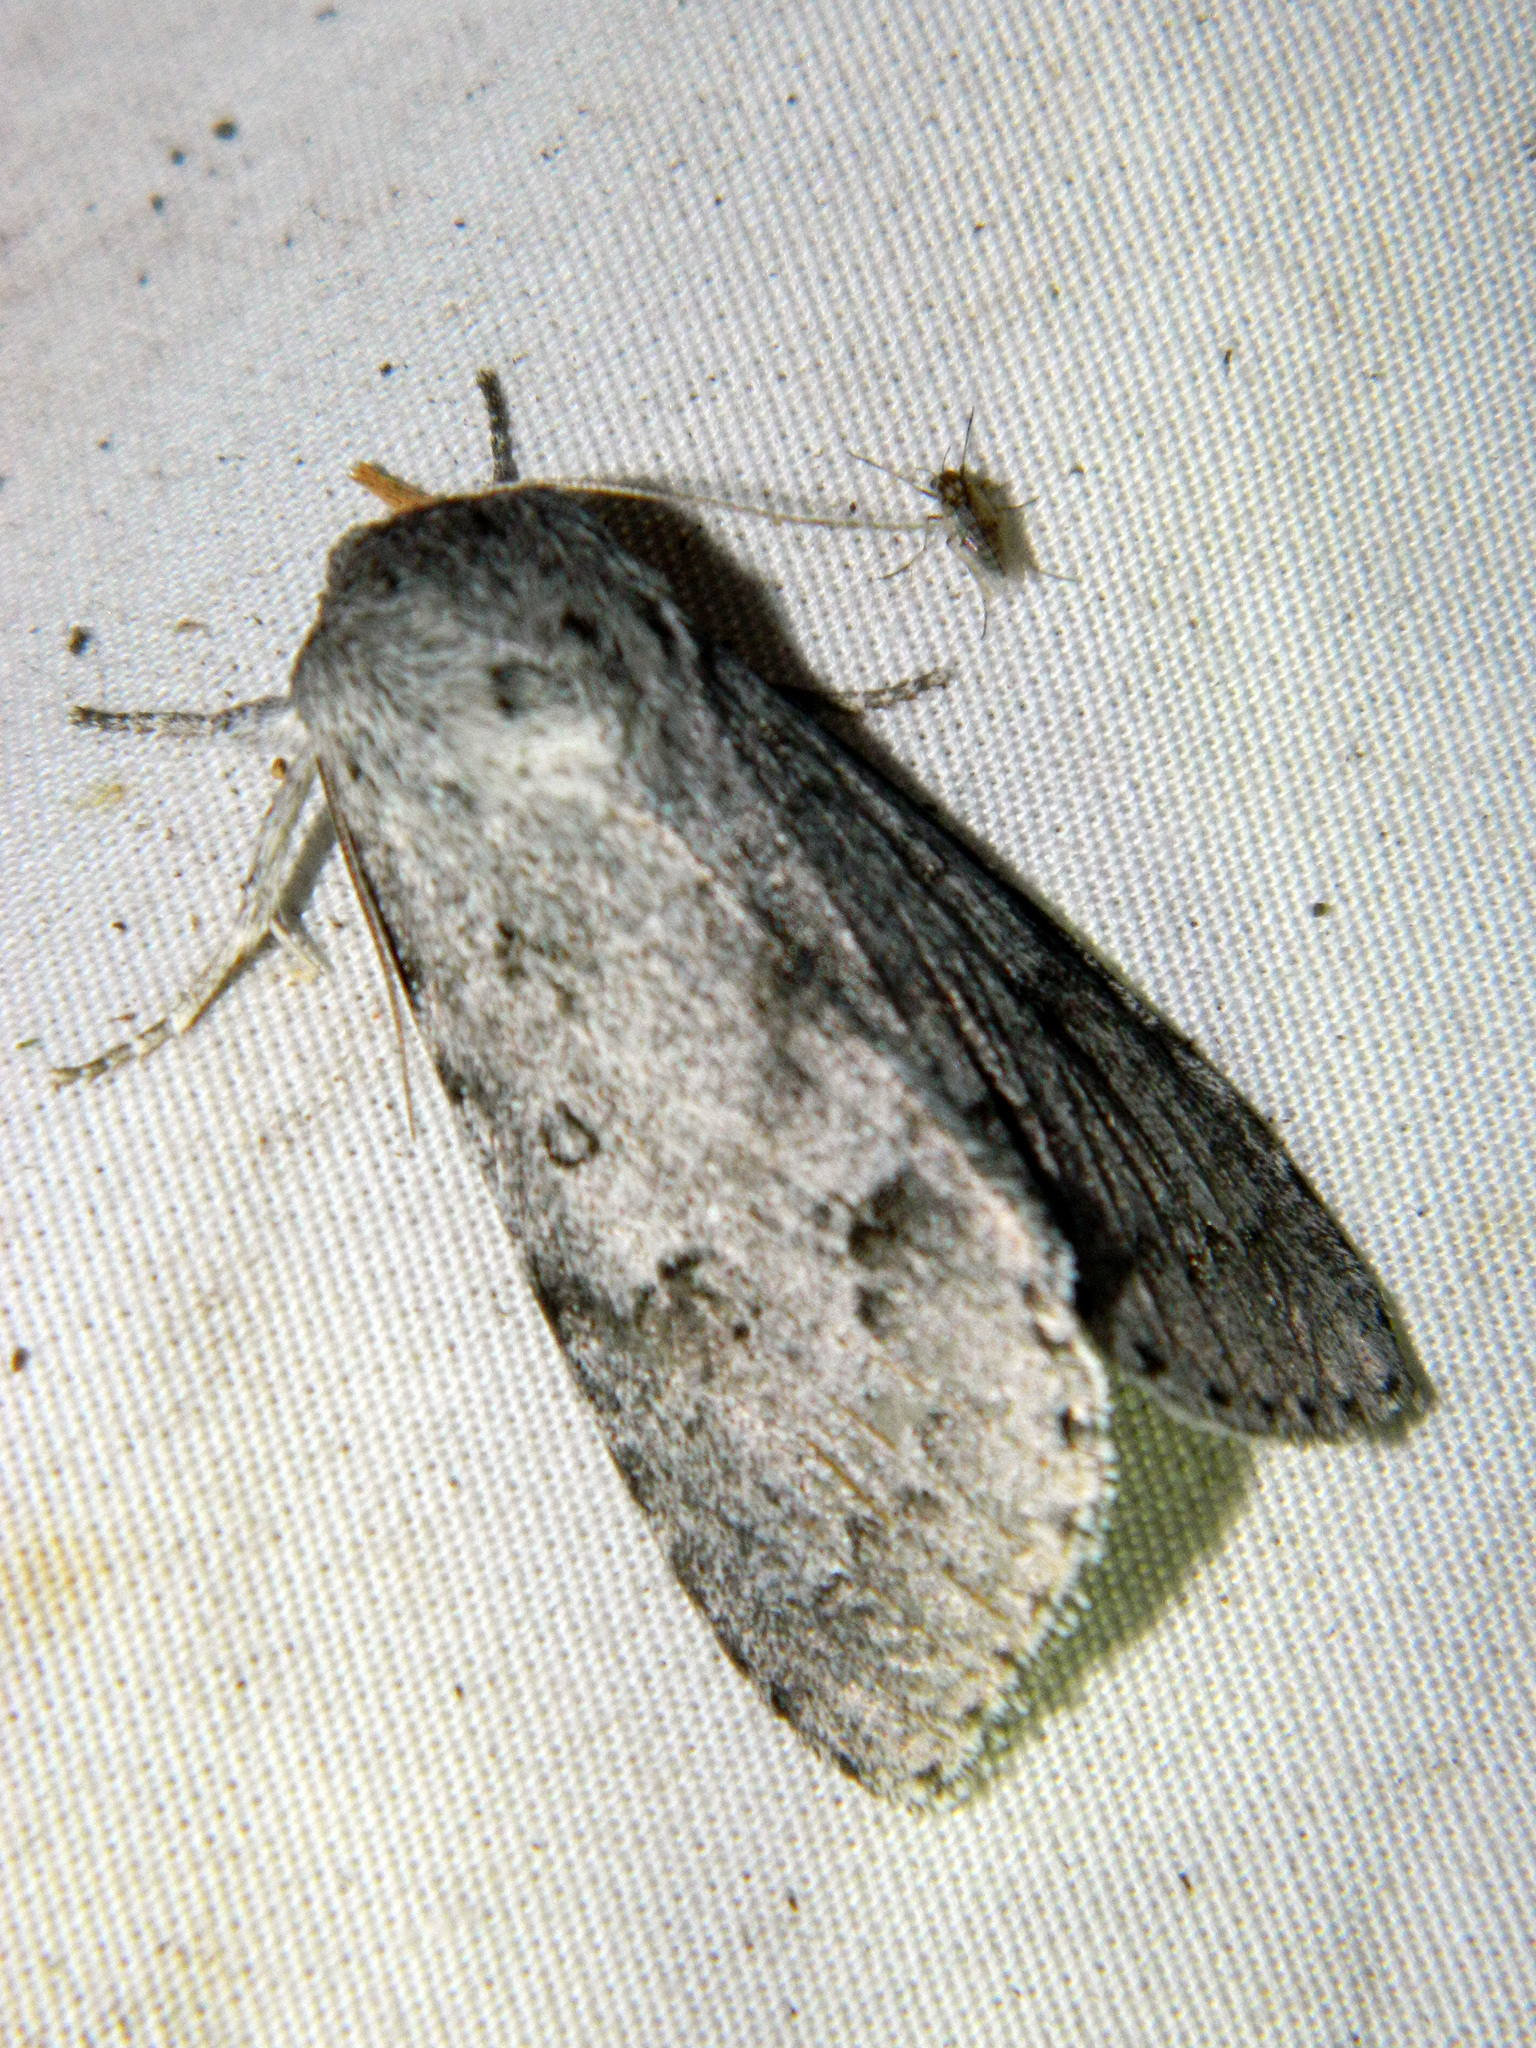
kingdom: Animalia
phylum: Arthropoda
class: Insecta
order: Lepidoptera
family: Noctuidae
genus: Acronicta
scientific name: Acronicta insita
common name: Large gray dagger
